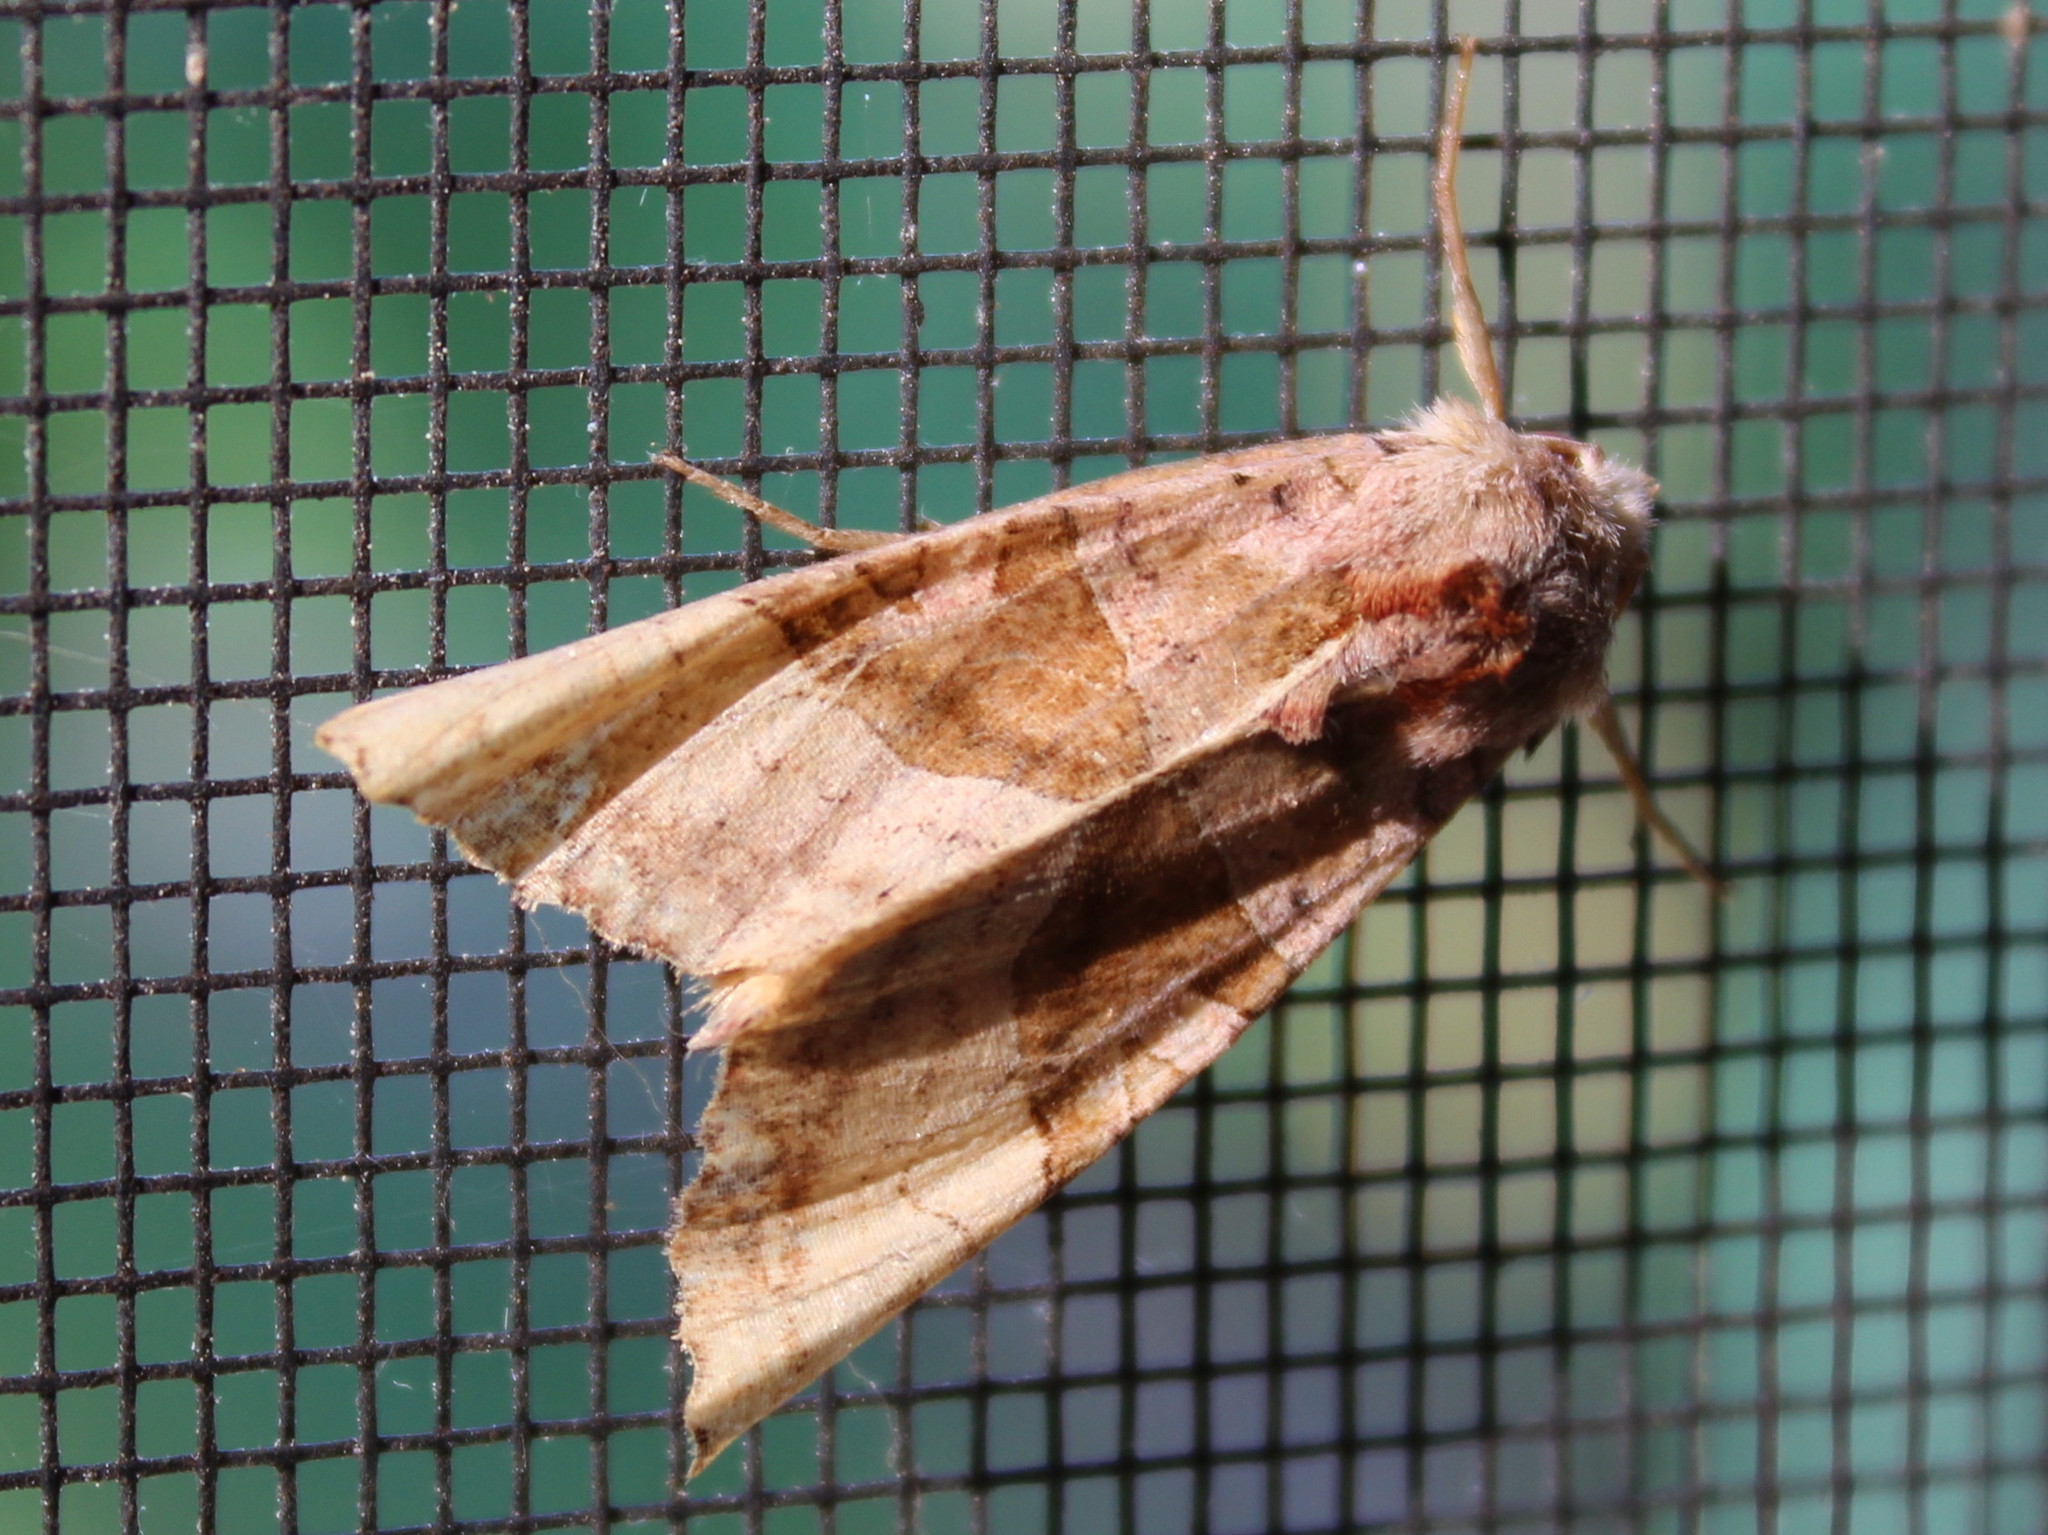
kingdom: Animalia
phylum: Arthropoda
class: Insecta
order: Lepidoptera
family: Noctuidae
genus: Phlogophora
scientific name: Phlogophora periculosa
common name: Brown angle shades
